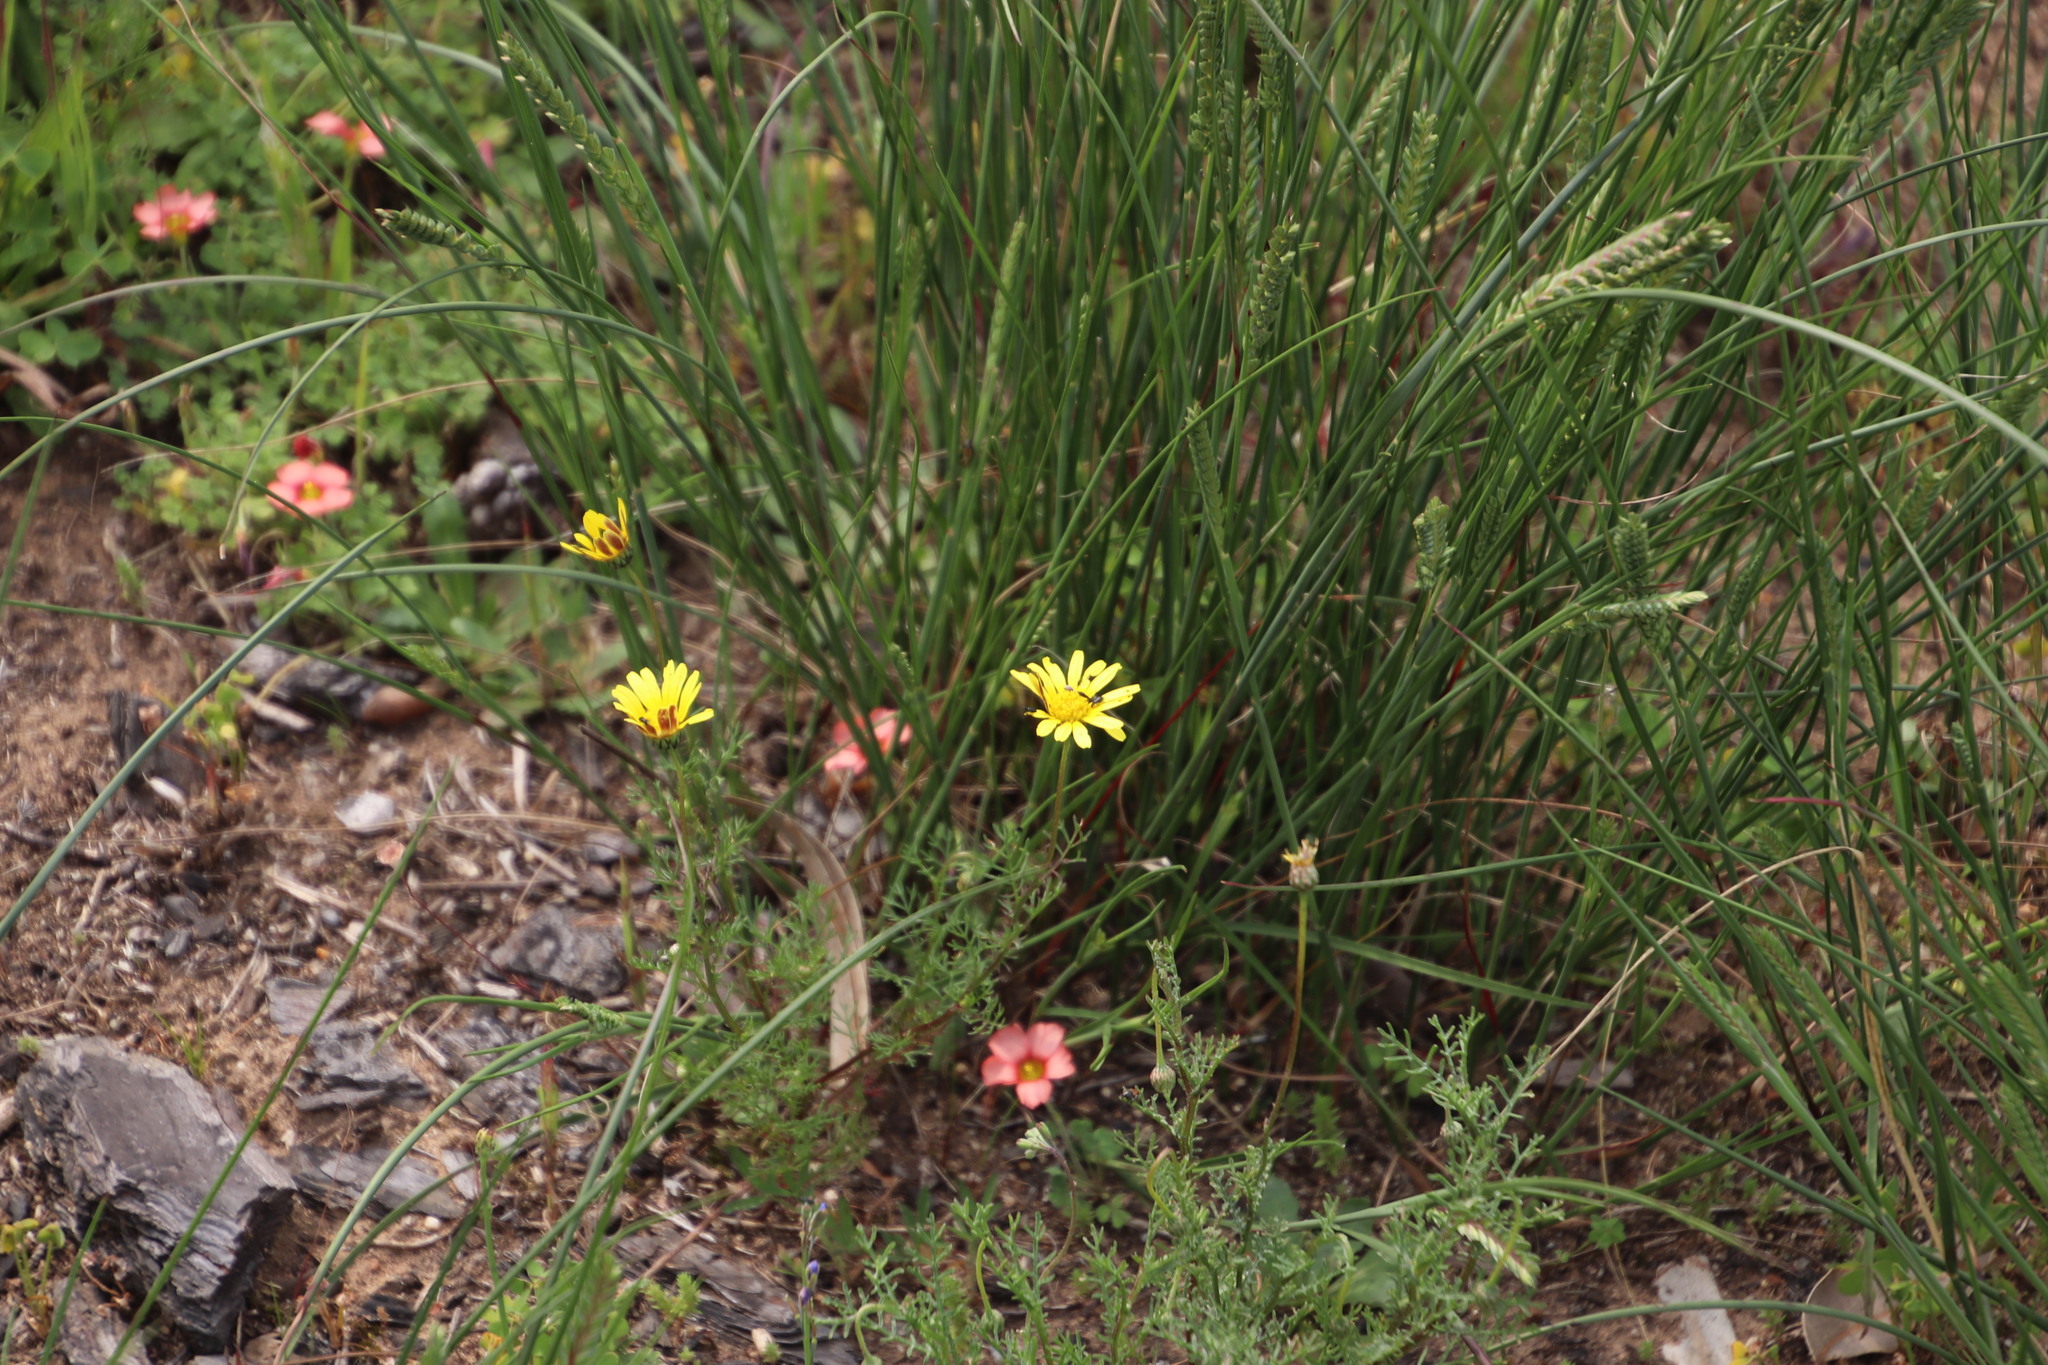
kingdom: Plantae
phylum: Tracheophyta
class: Magnoliopsida
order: Asterales
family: Asteraceae
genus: Ursinia
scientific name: Ursinia anthemoides
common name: Ursinia
